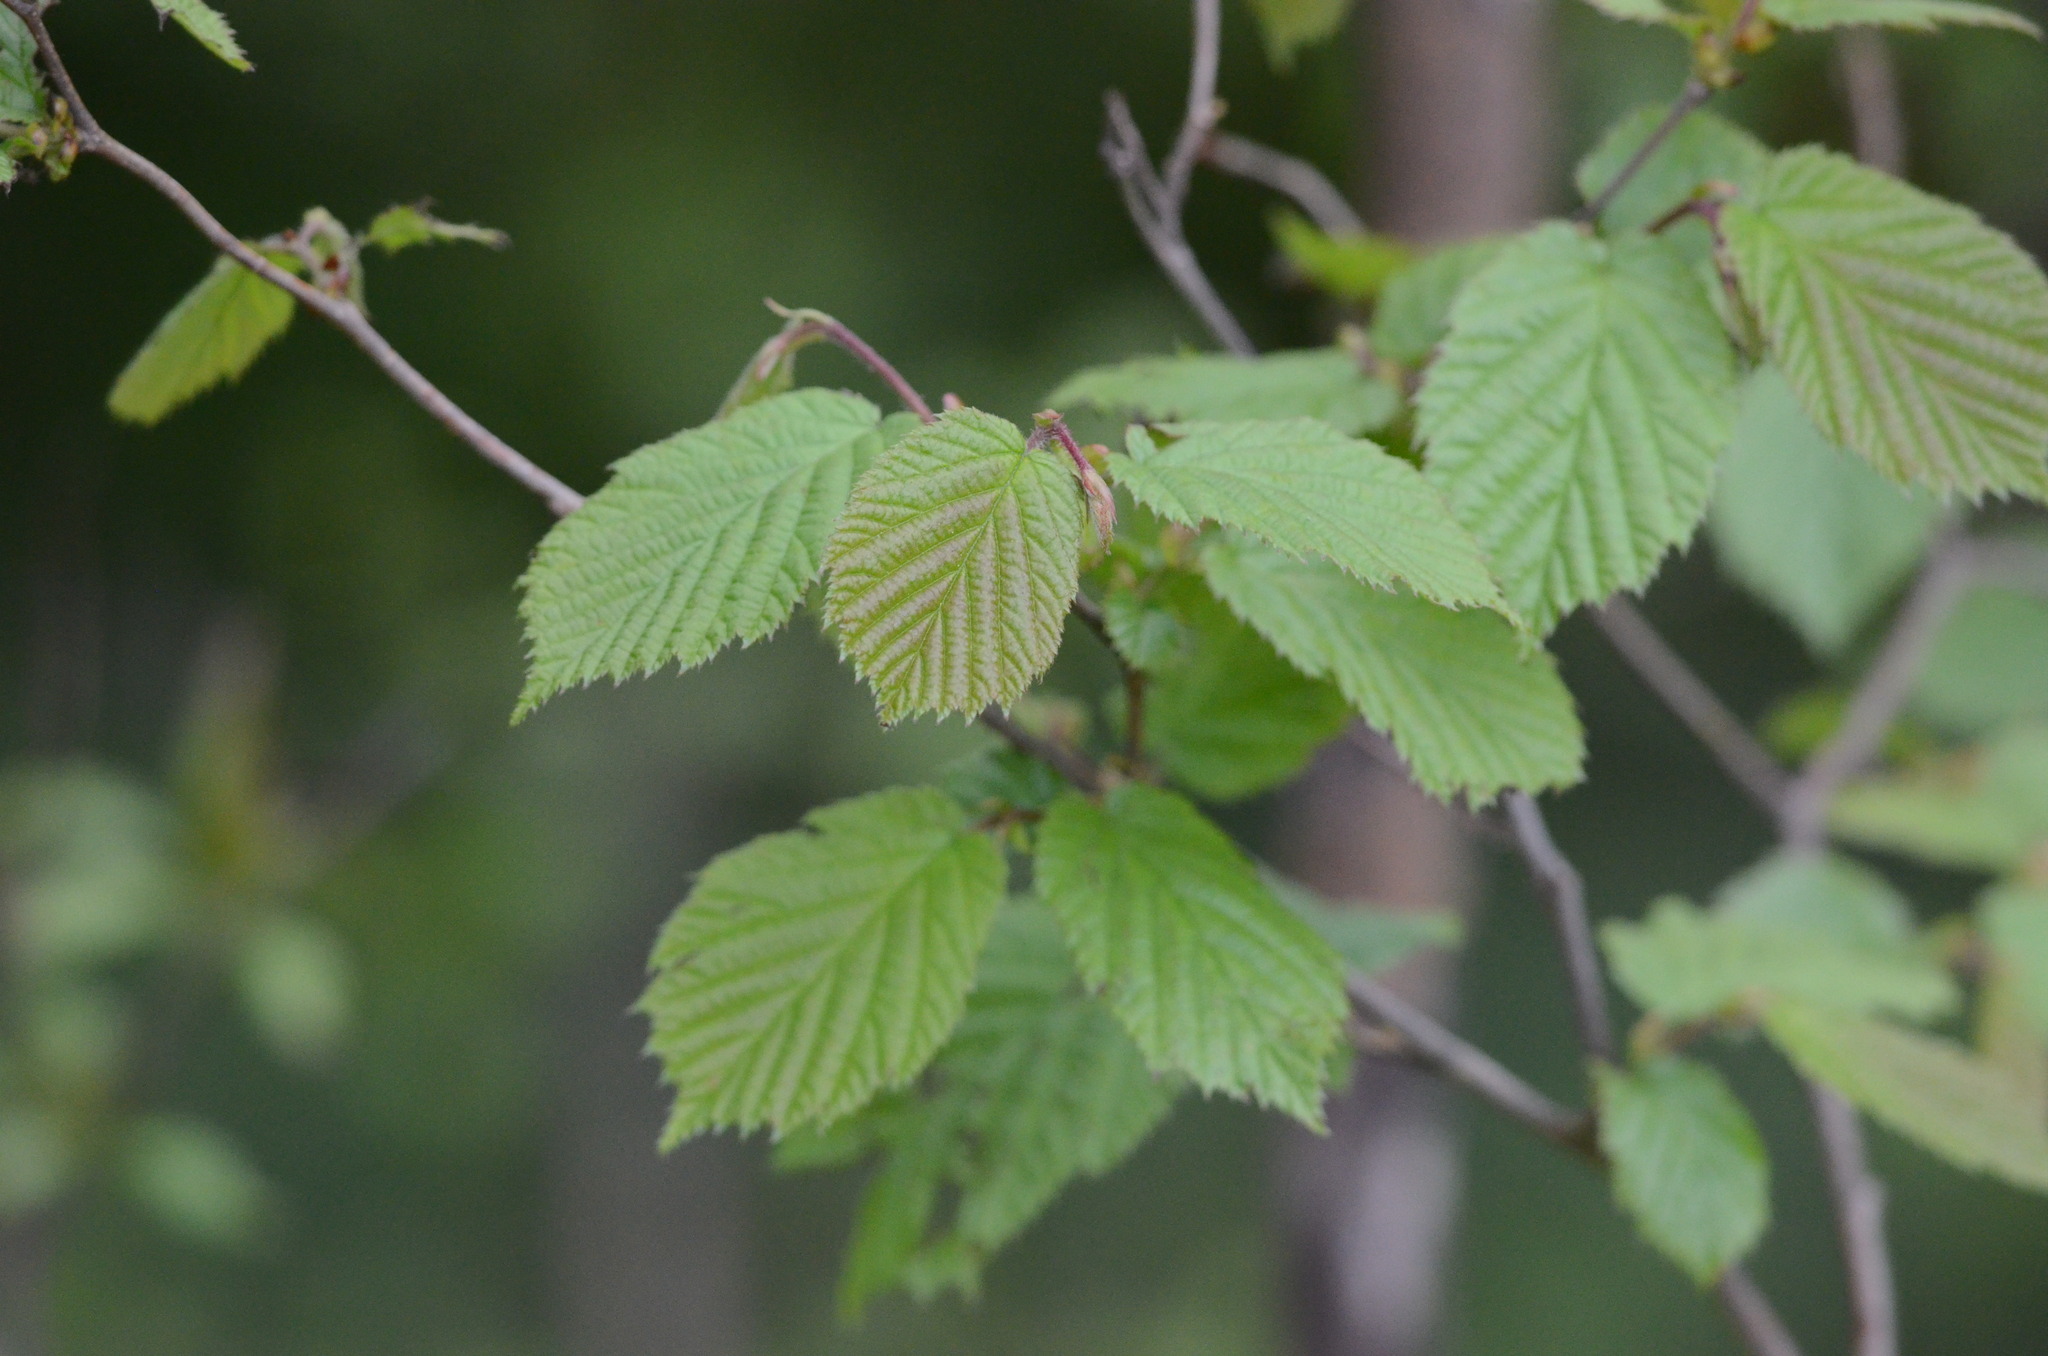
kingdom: Plantae
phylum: Tracheophyta
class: Magnoliopsida
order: Fagales
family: Betulaceae
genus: Corylus
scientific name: Corylus avellana
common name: European hazel
